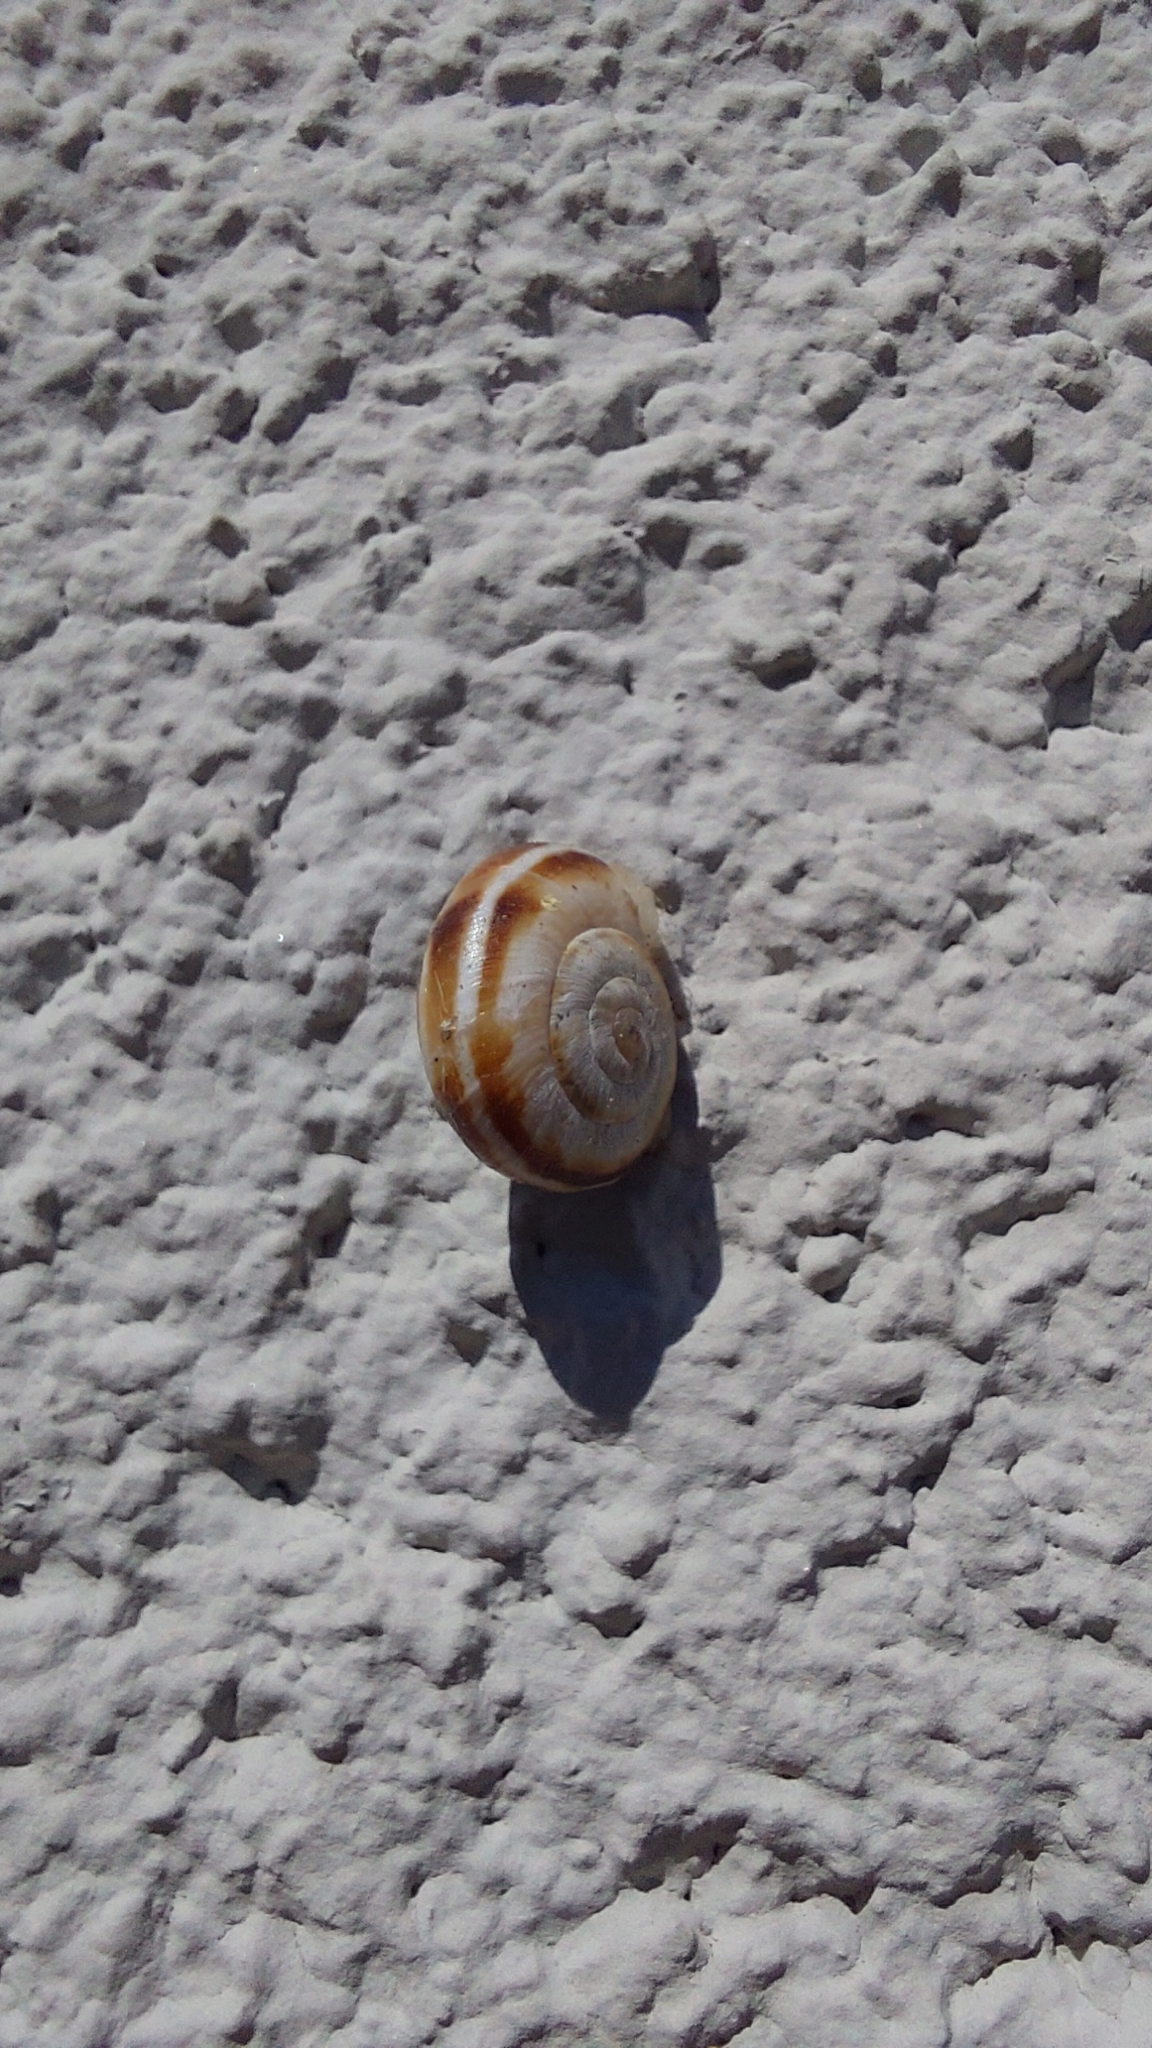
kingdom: Animalia
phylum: Mollusca
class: Gastropoda
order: Stylommatophora
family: Geomitridae
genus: Xerolenta
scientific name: Xerolenta obvia
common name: White heath snail
